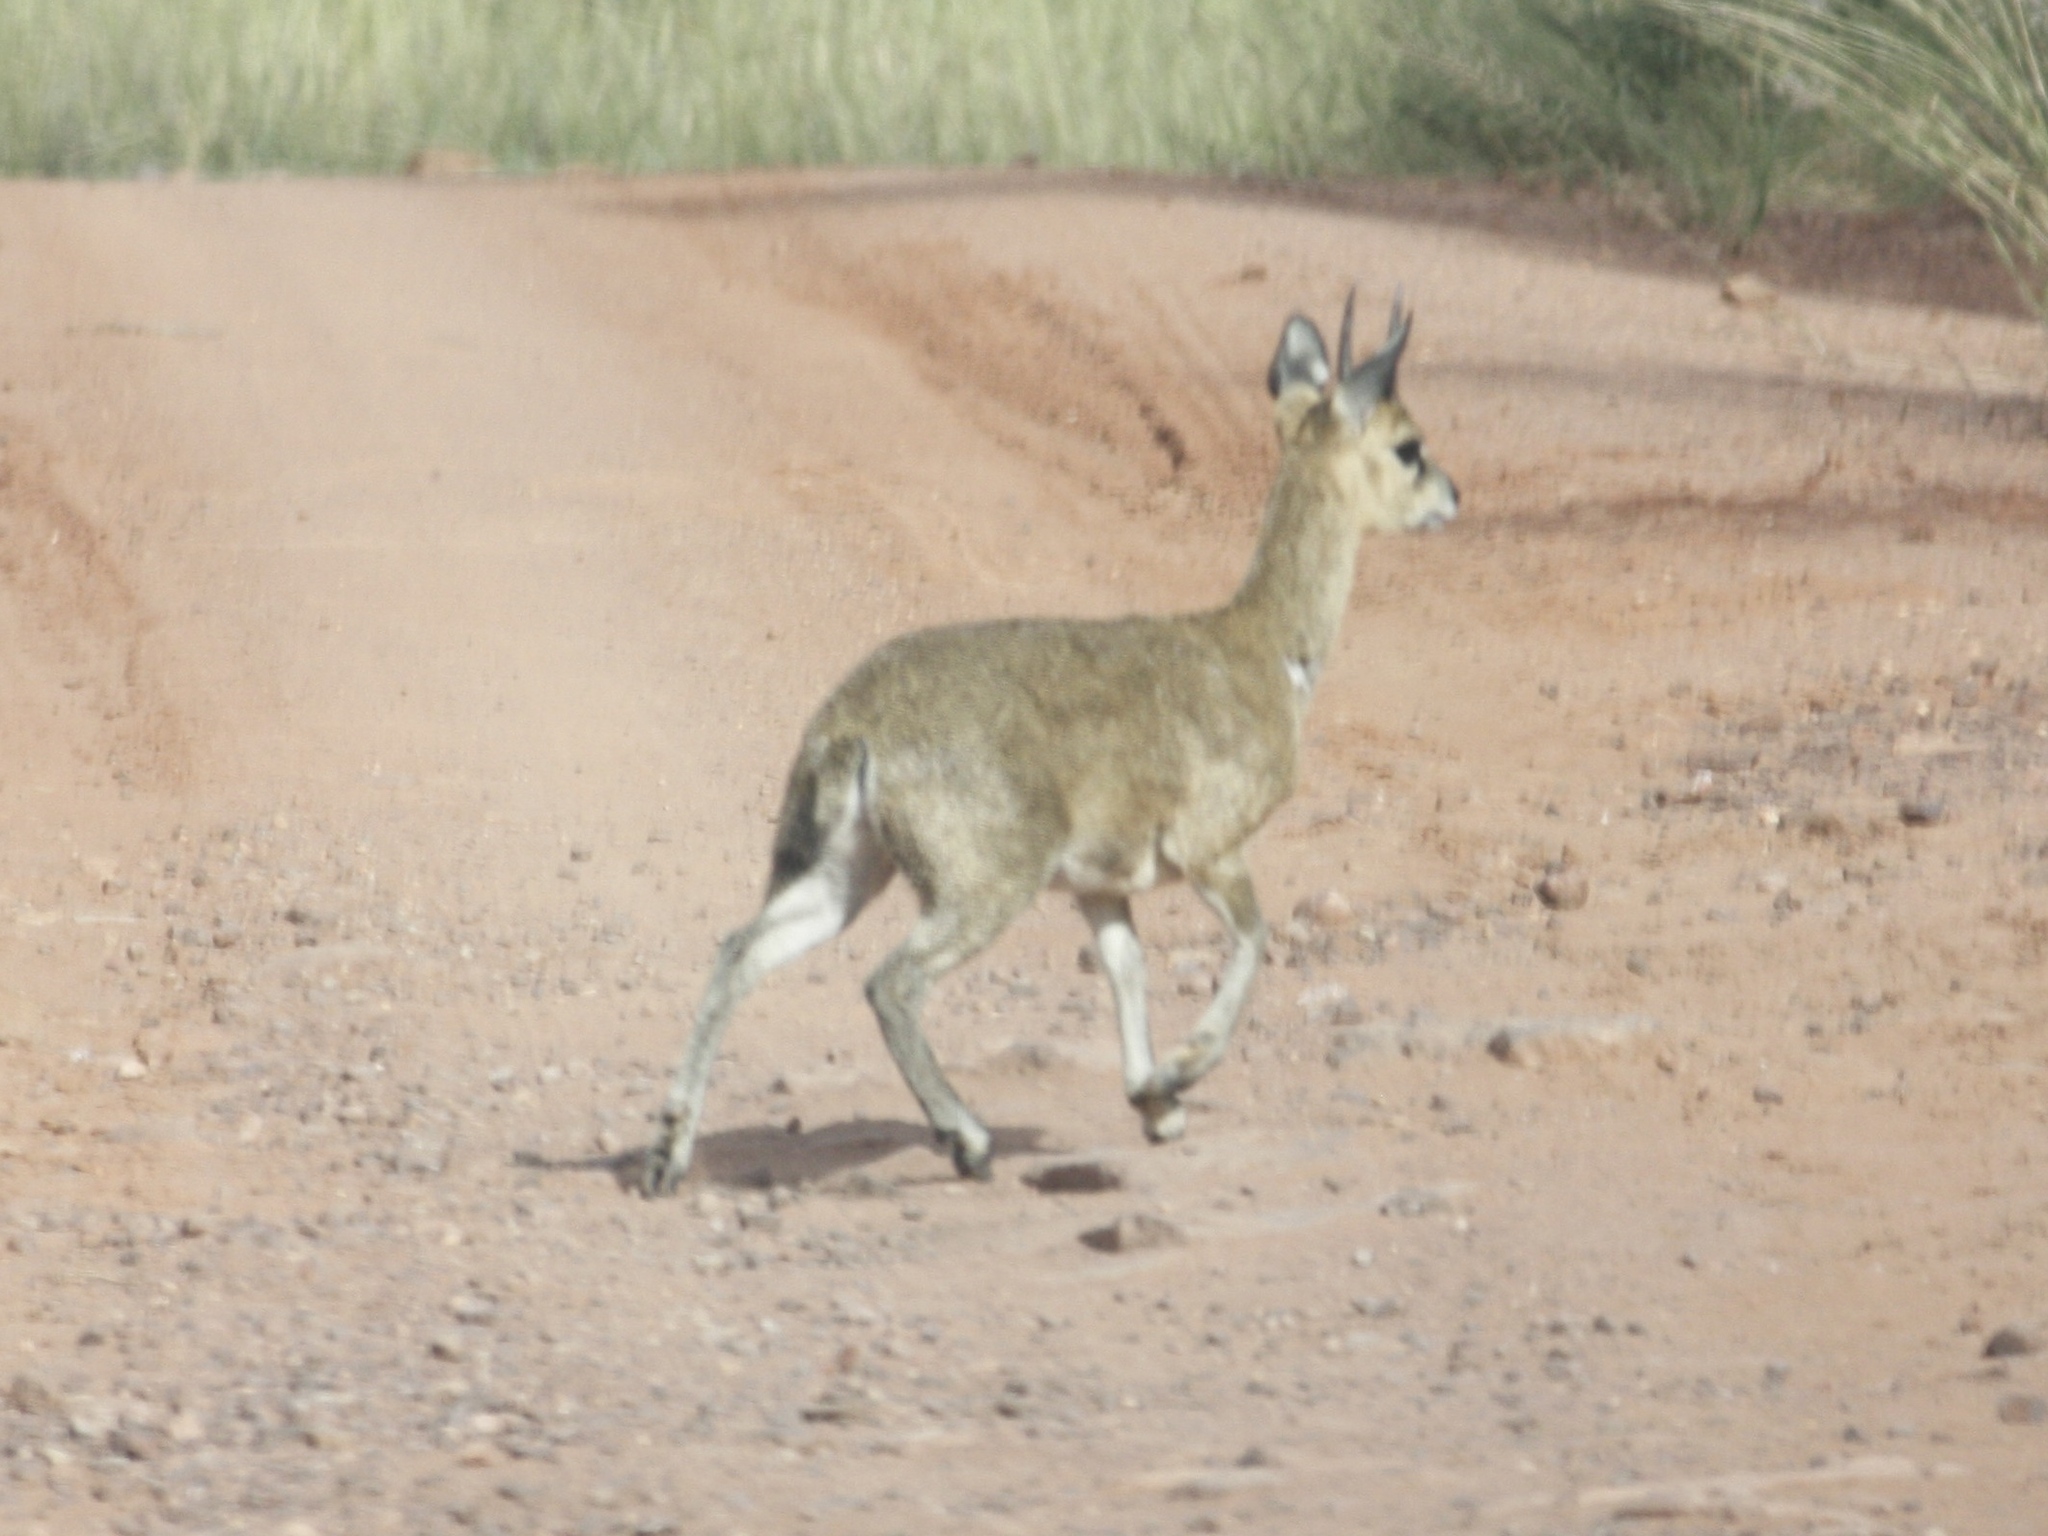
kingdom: Animalia
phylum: Chordata
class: Mammalia
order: Artiodactyla
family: Bovidae
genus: Oreotragus
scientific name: Oreotragus oreotragus
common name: Klipspringer
